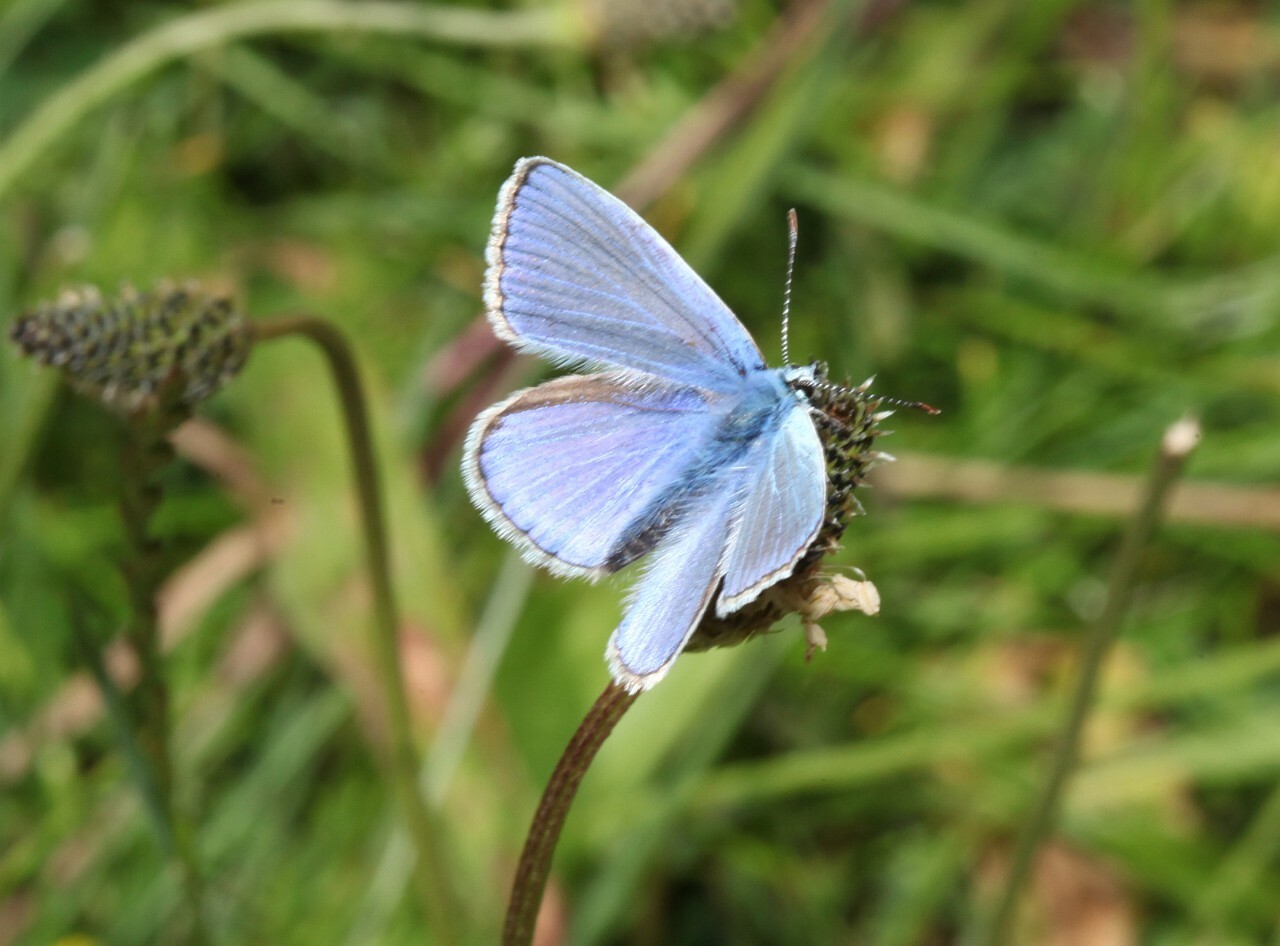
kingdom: Animalia
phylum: Arthropoda
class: Insecta
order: Lepidoptera
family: Lycaenidae
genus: Polyommatus
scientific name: Polyommatus icarus
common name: Common blue
